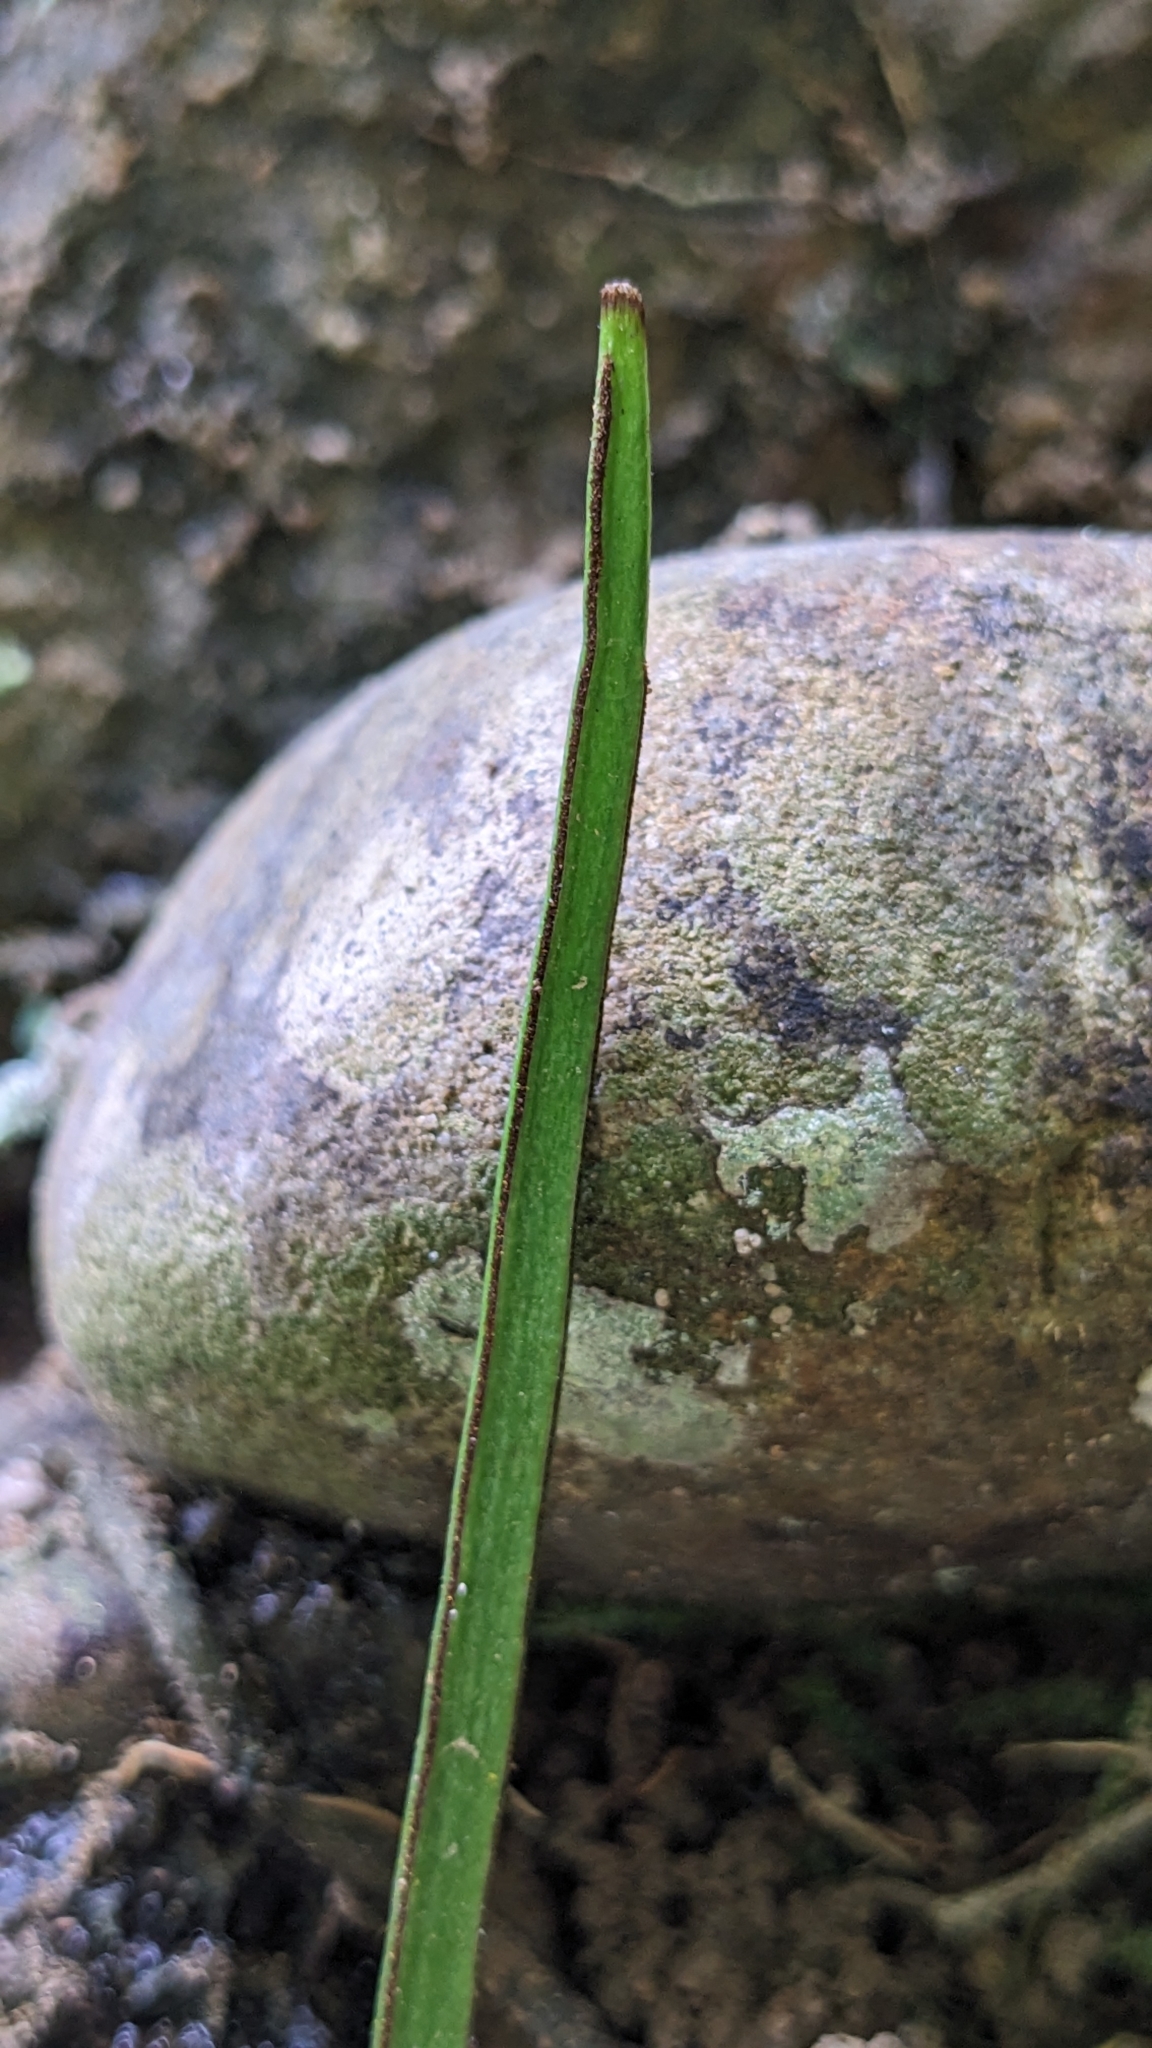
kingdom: Plantae
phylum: Tracheophyta
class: Polypodiopsida
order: Polypodiales
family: Pteridaceae
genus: Haplopteris
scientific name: Haplopteris anguste-elongata
